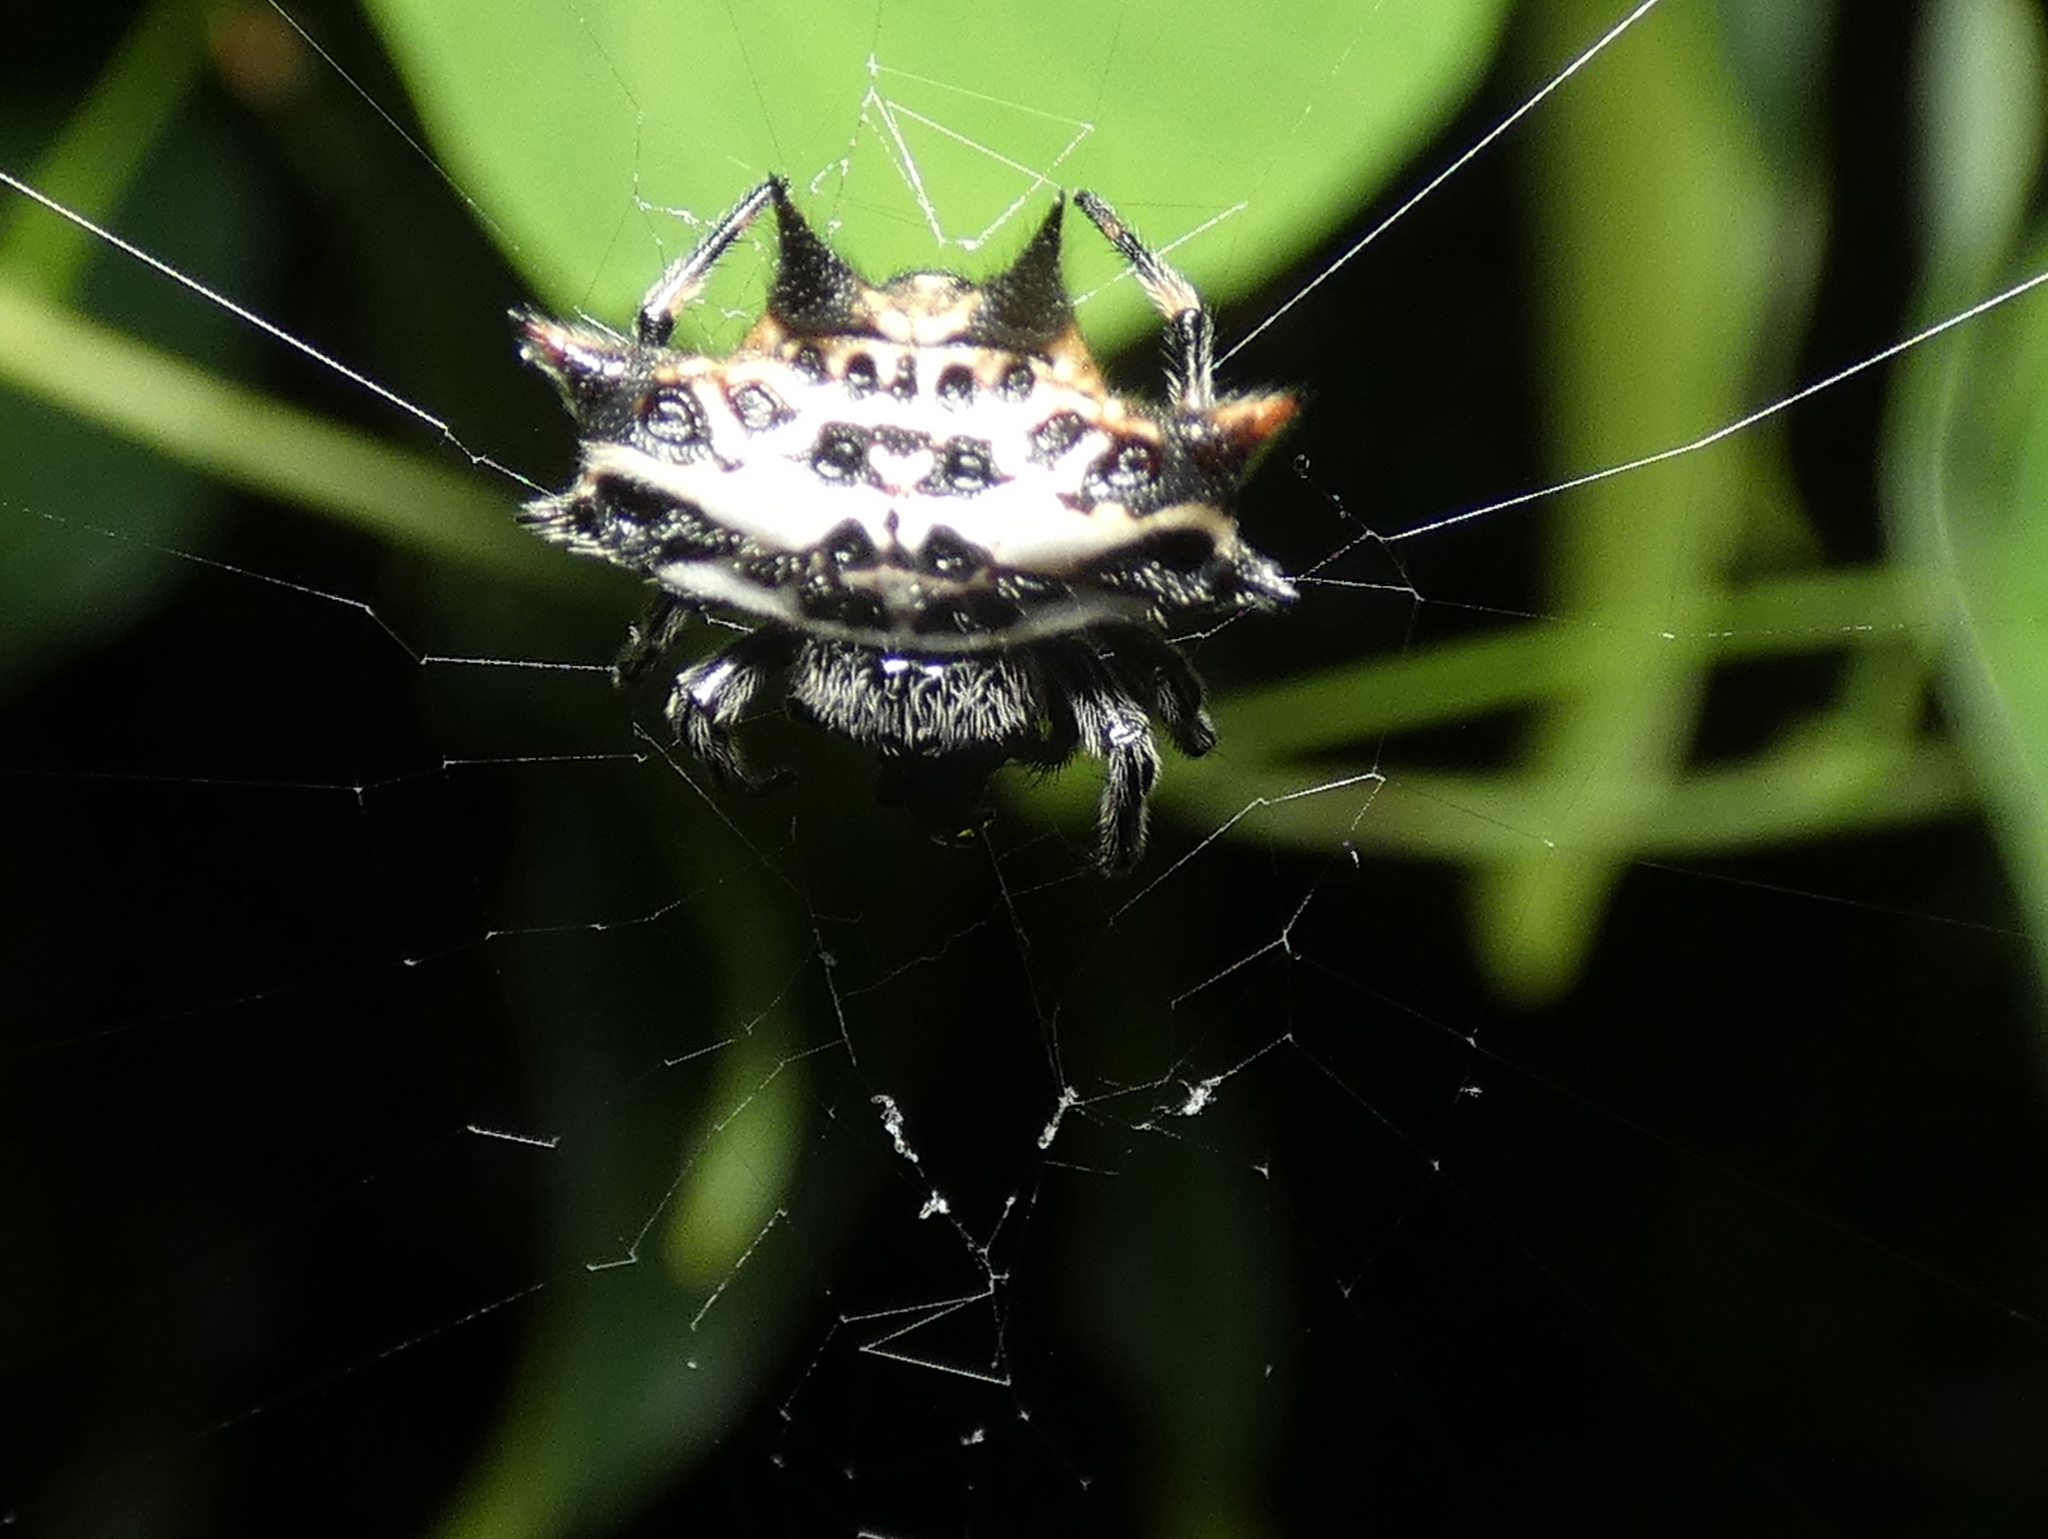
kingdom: Animalia
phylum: Arthropoda
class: Arachnida
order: Araneae
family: Araneidae
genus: Gasteracantha
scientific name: Gasteracantha cancriformis
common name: Orb weavers
